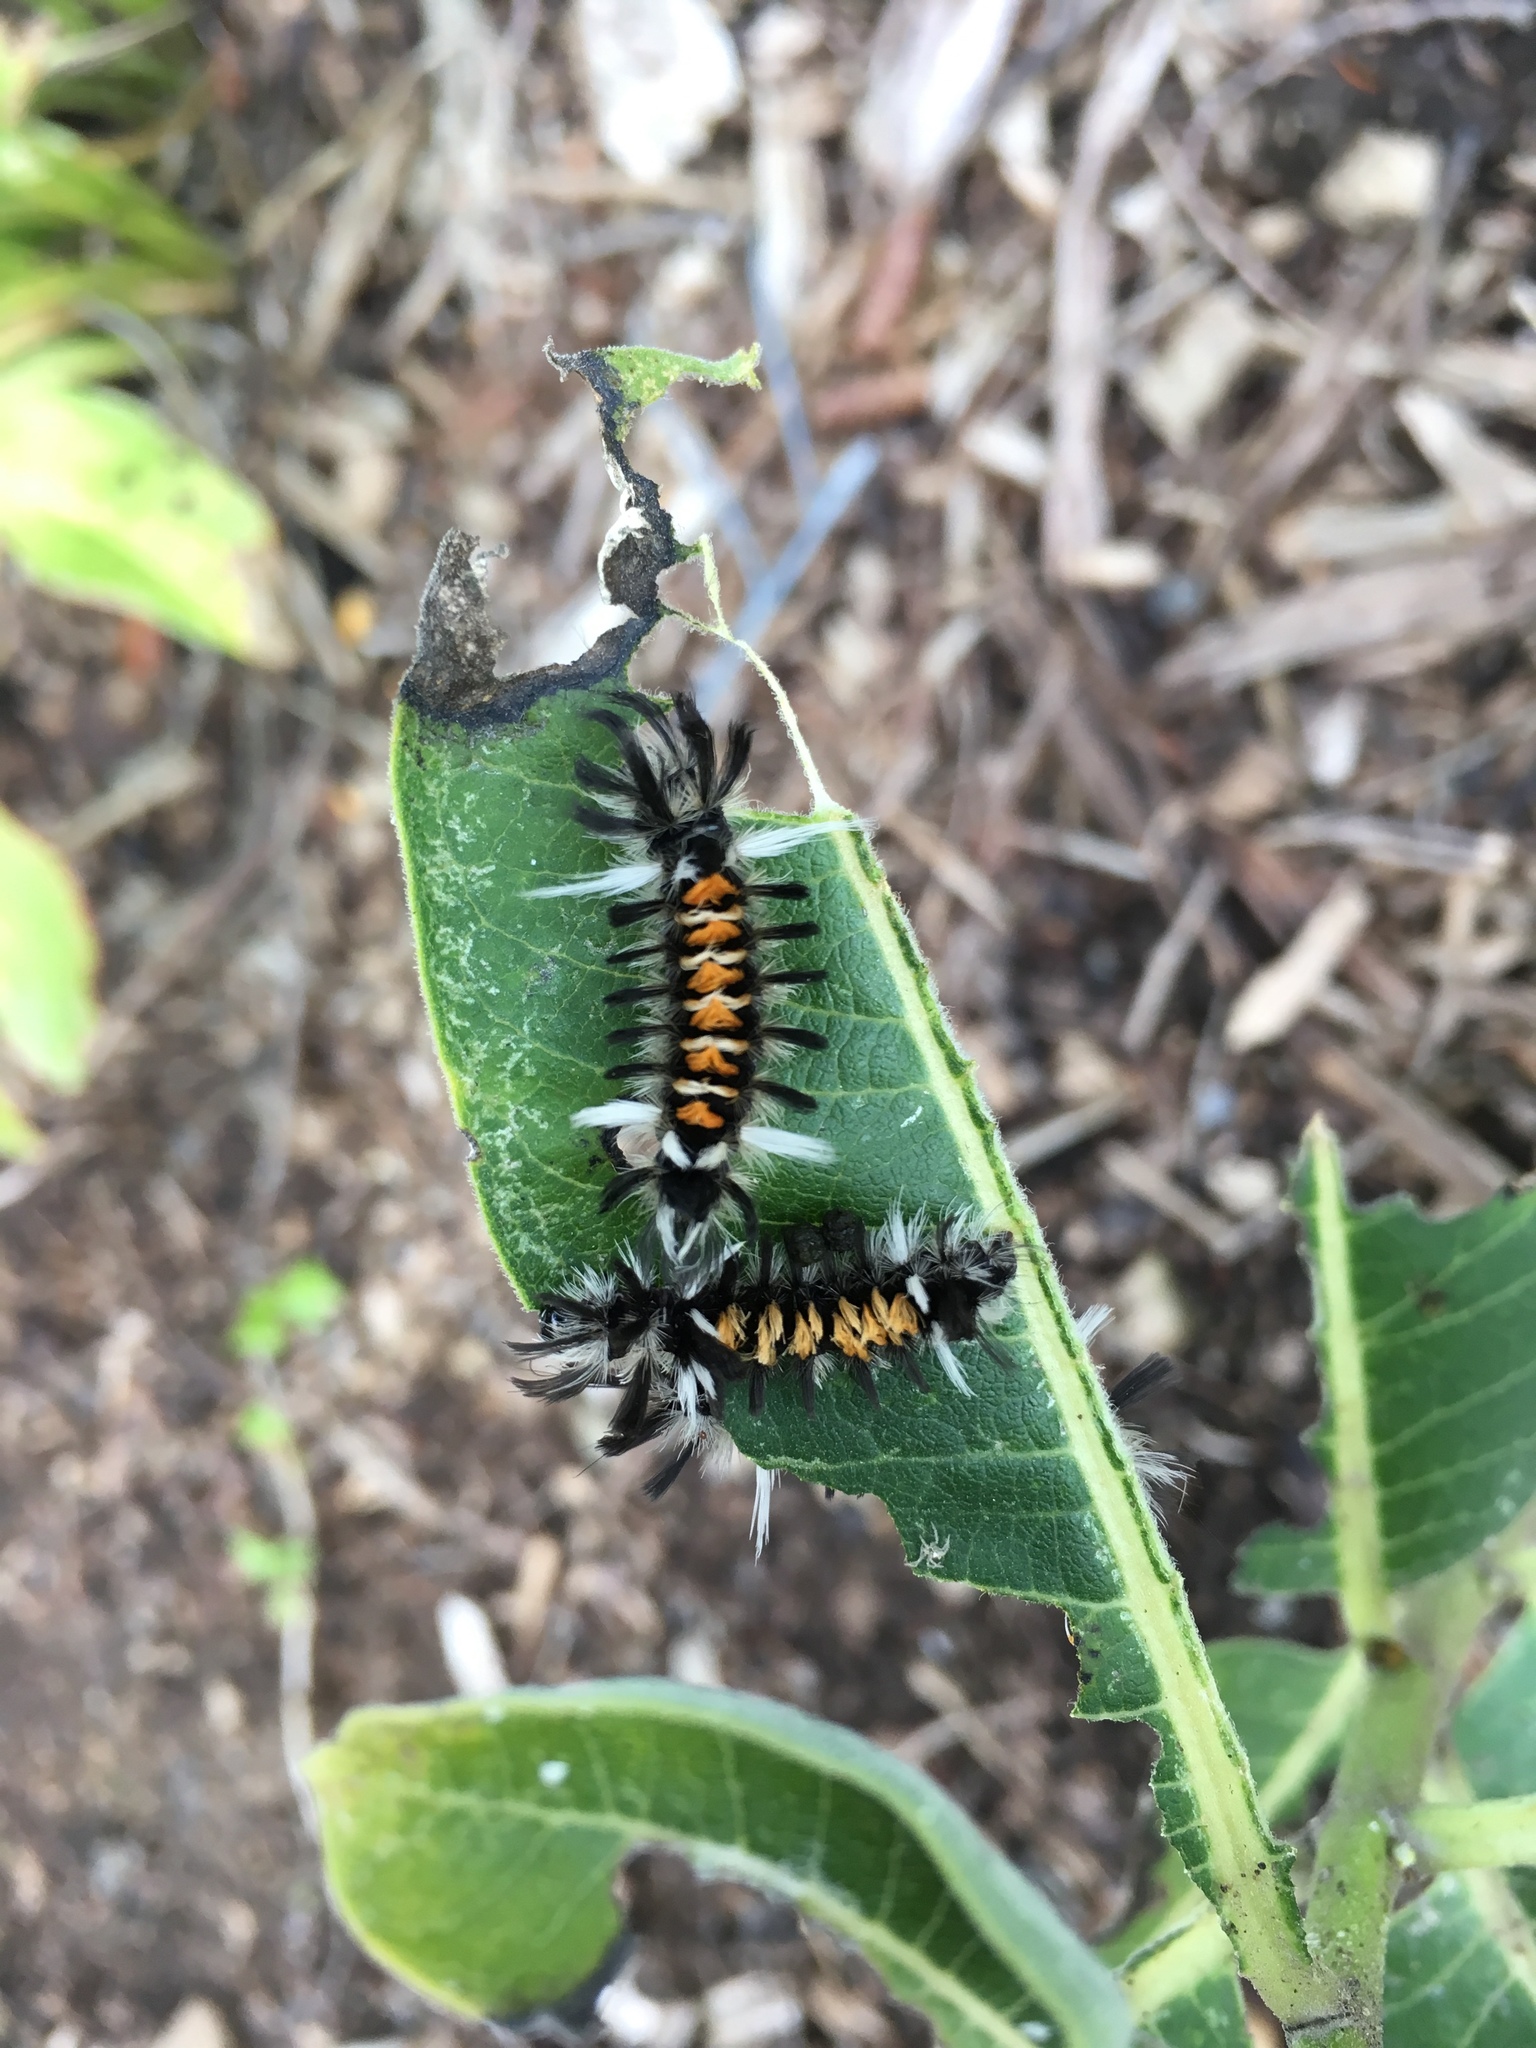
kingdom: Animalia
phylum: Arthropoda
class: Insecta
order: Lepidoptera
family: Erebidae
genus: Euchaetes
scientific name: Euchaetes egle
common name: Milkweed tussock moth
